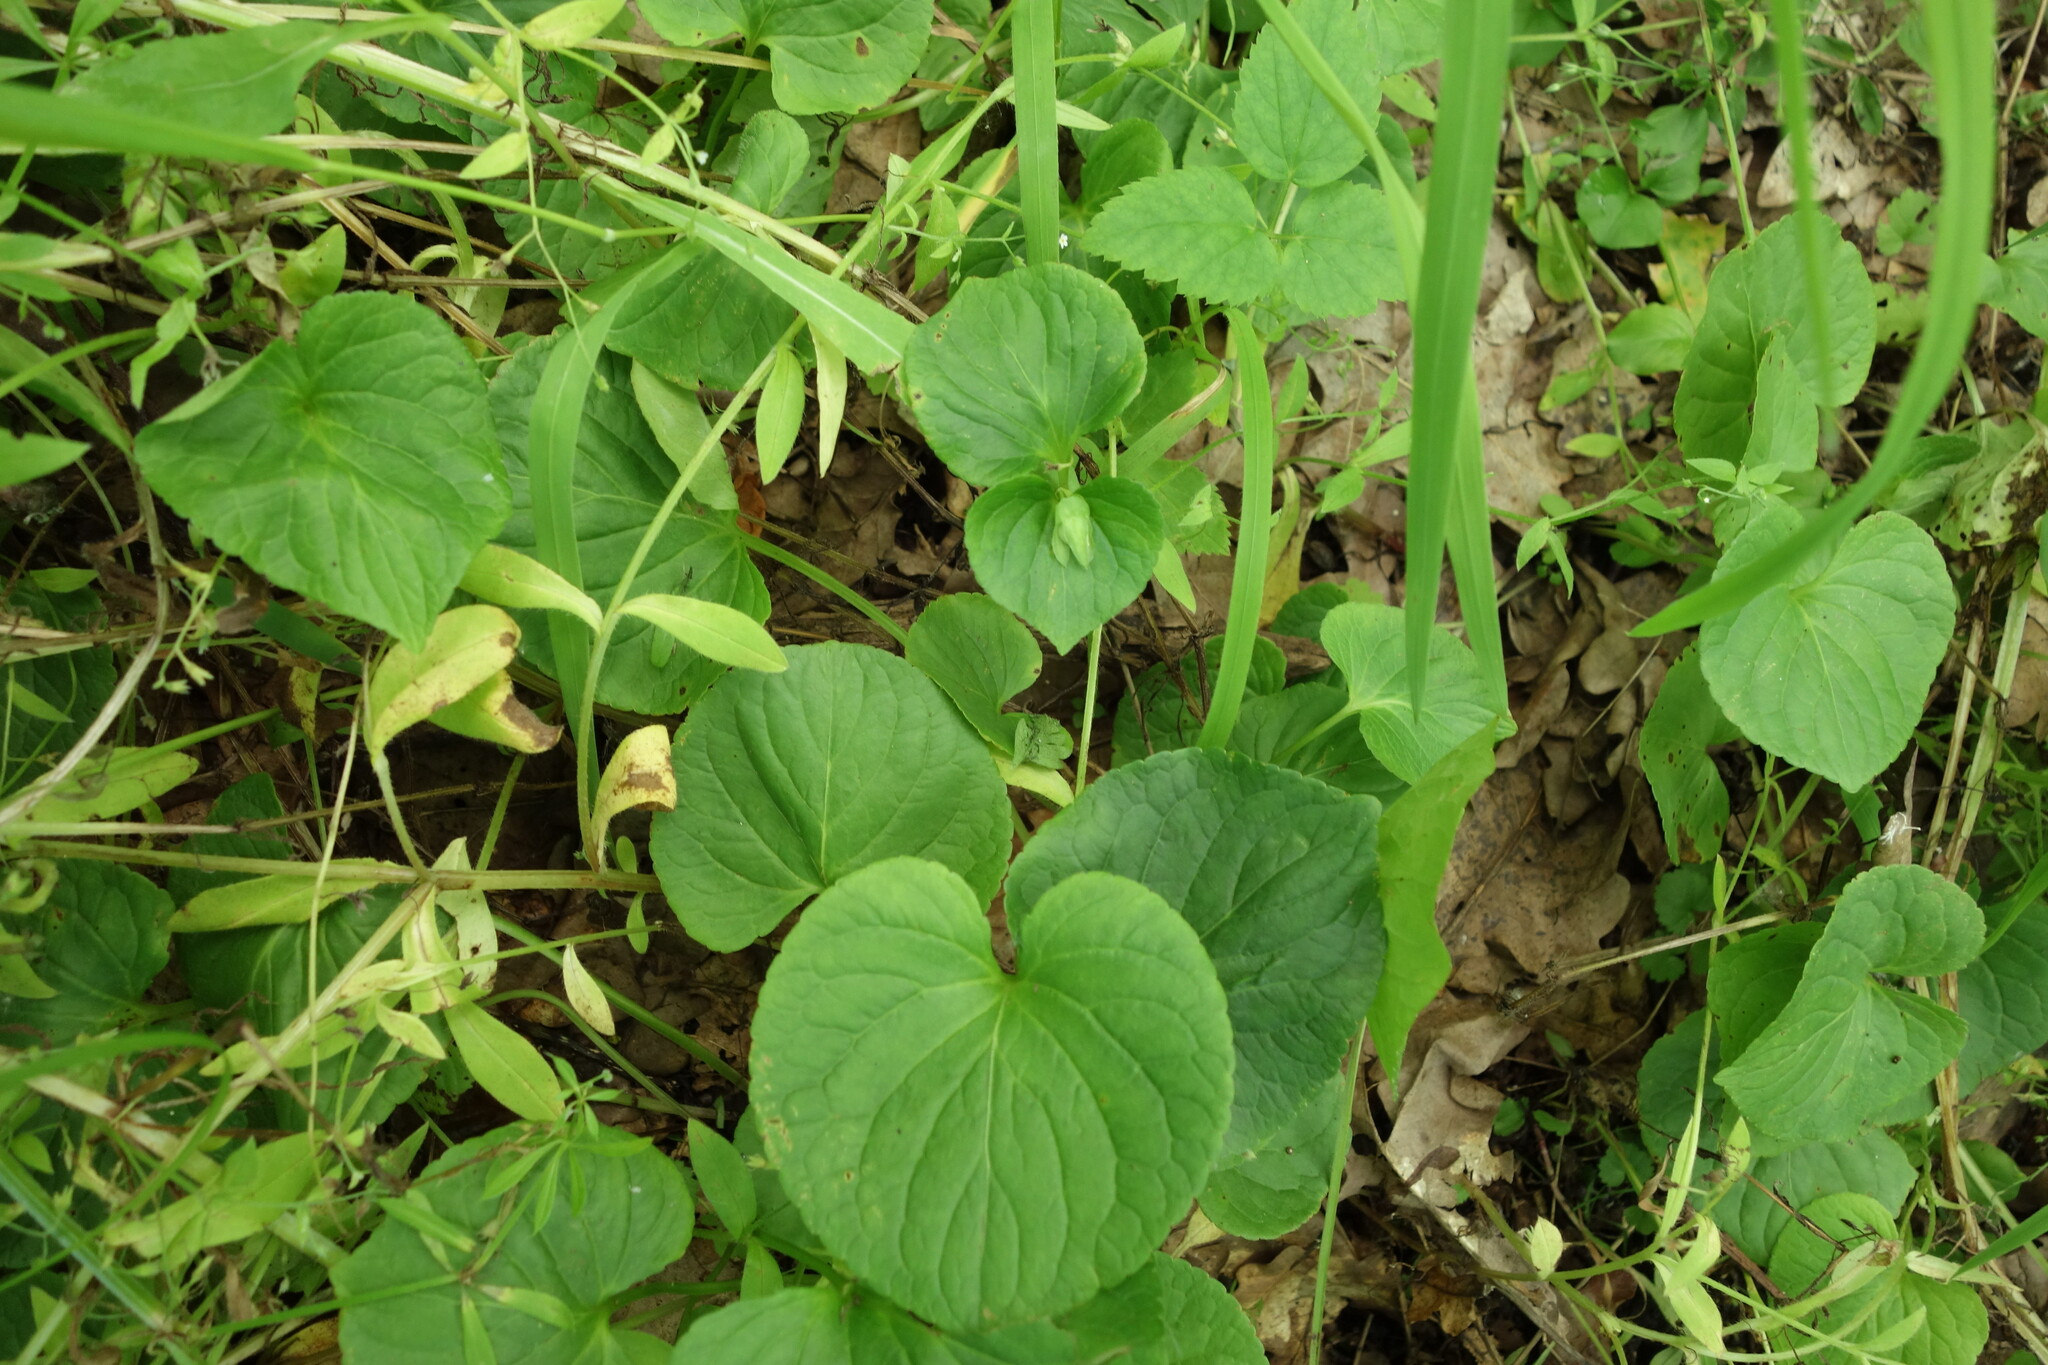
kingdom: Plantae
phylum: Tracheophyta
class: Magnoliopsida
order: Malpighiales
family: Violaceae
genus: Viola
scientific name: Viola mirabilis
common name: Wonder violet
